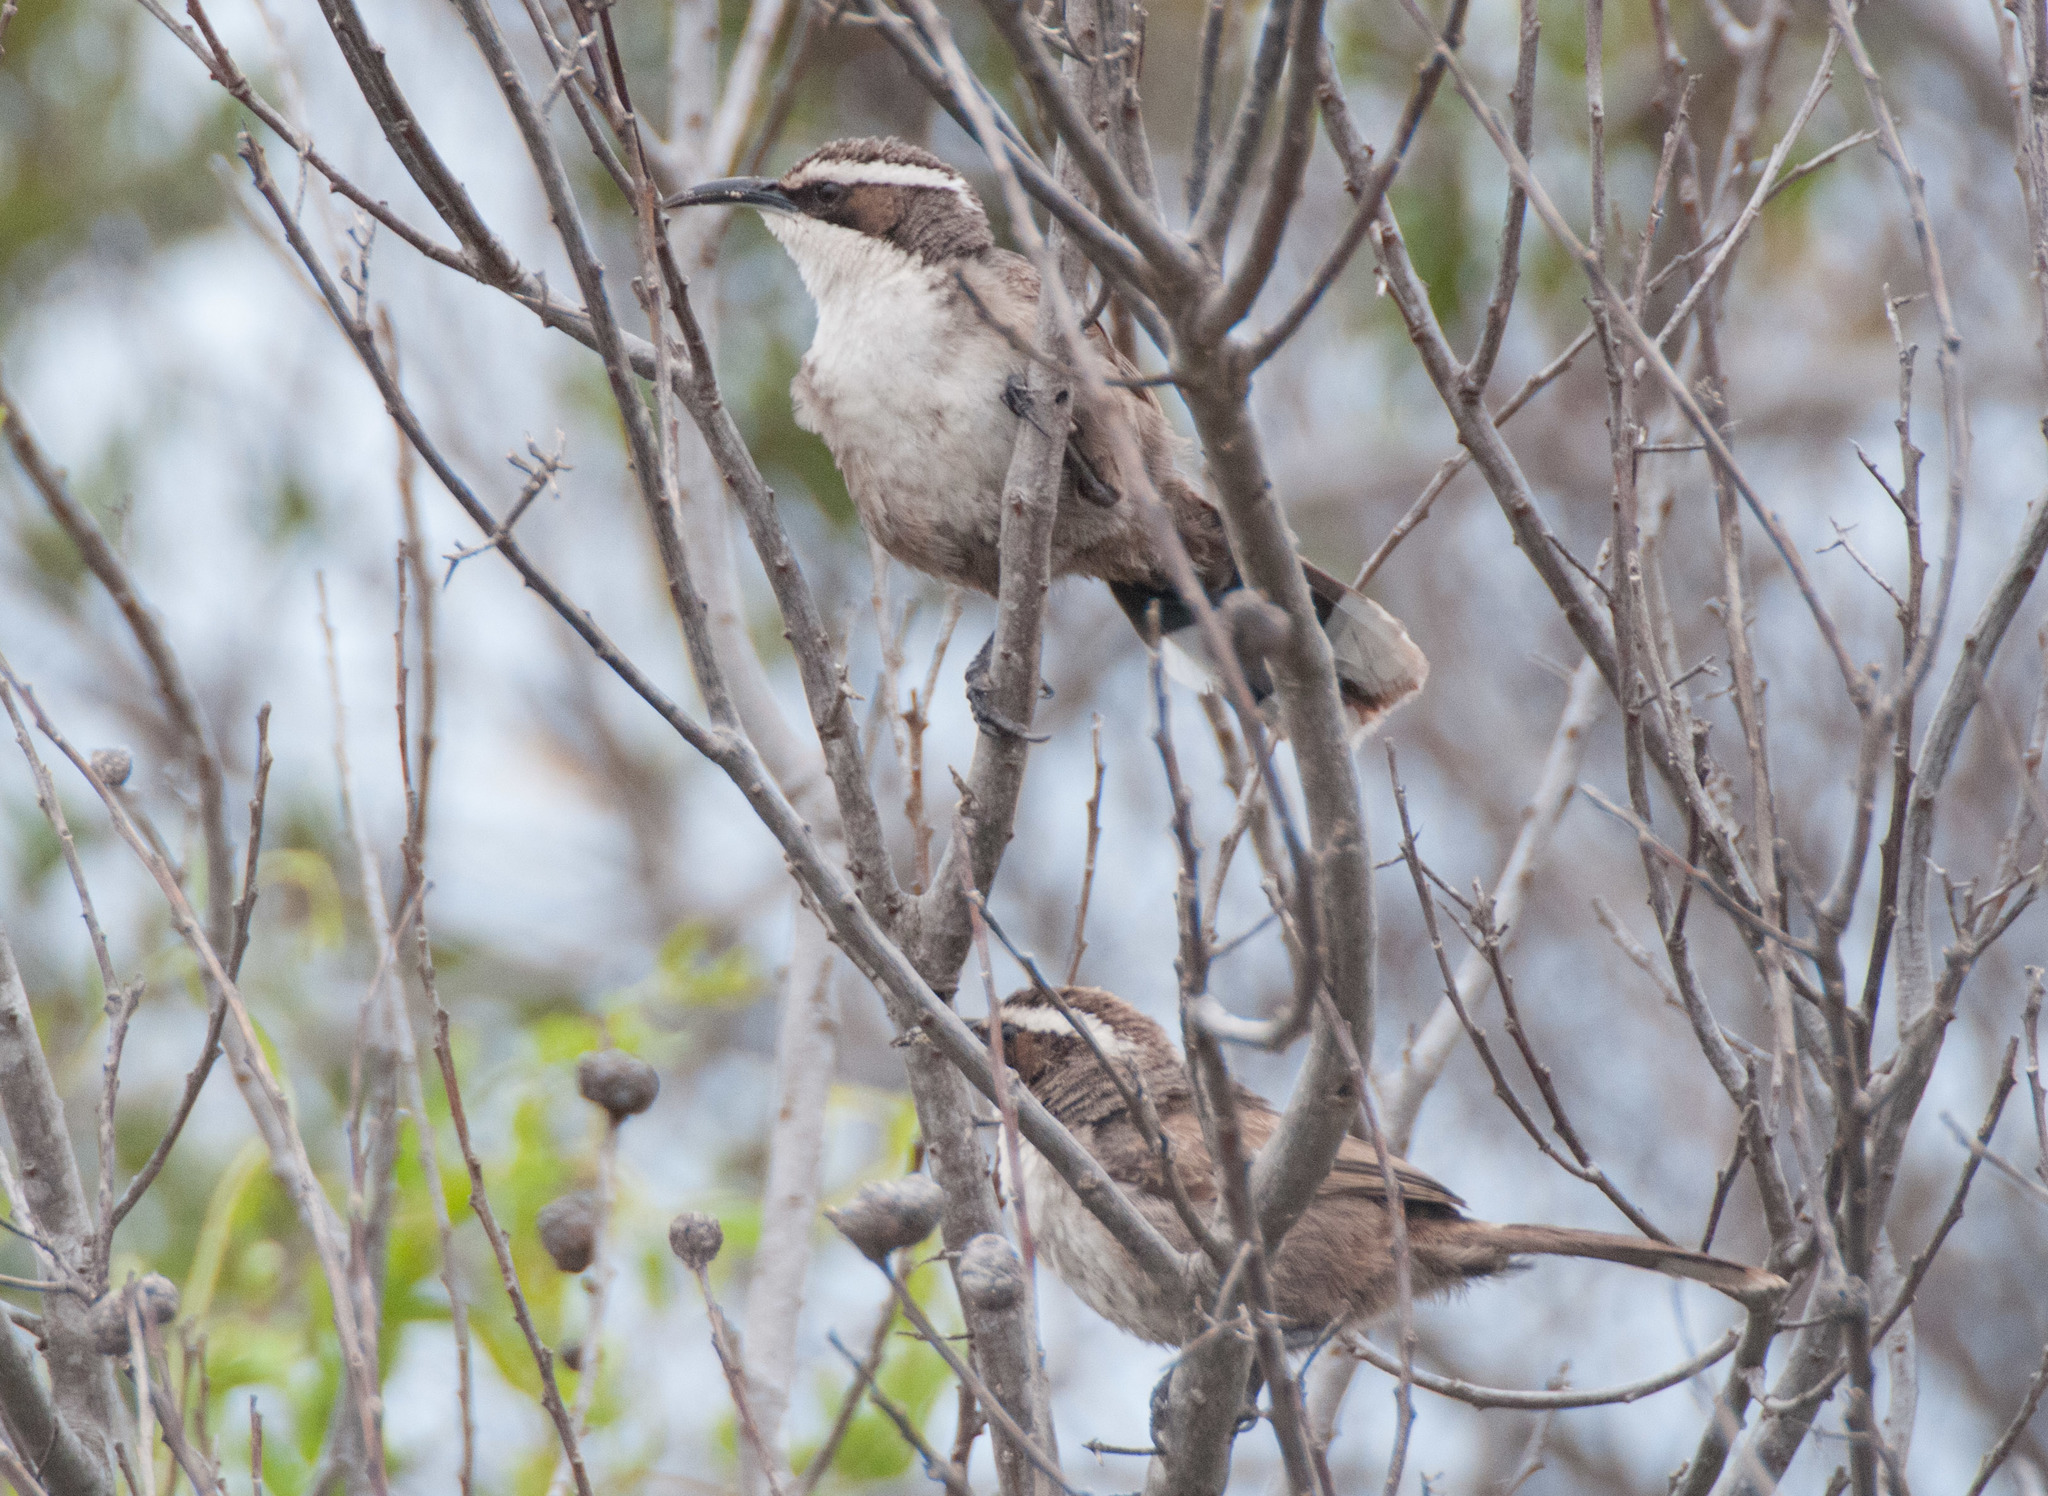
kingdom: Animalia
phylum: Chordata
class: Aves
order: Passeriformes
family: Pomatostomidae
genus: Pomatostomus
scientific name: Pomatostomus superciliosus
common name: White-browed babbler
